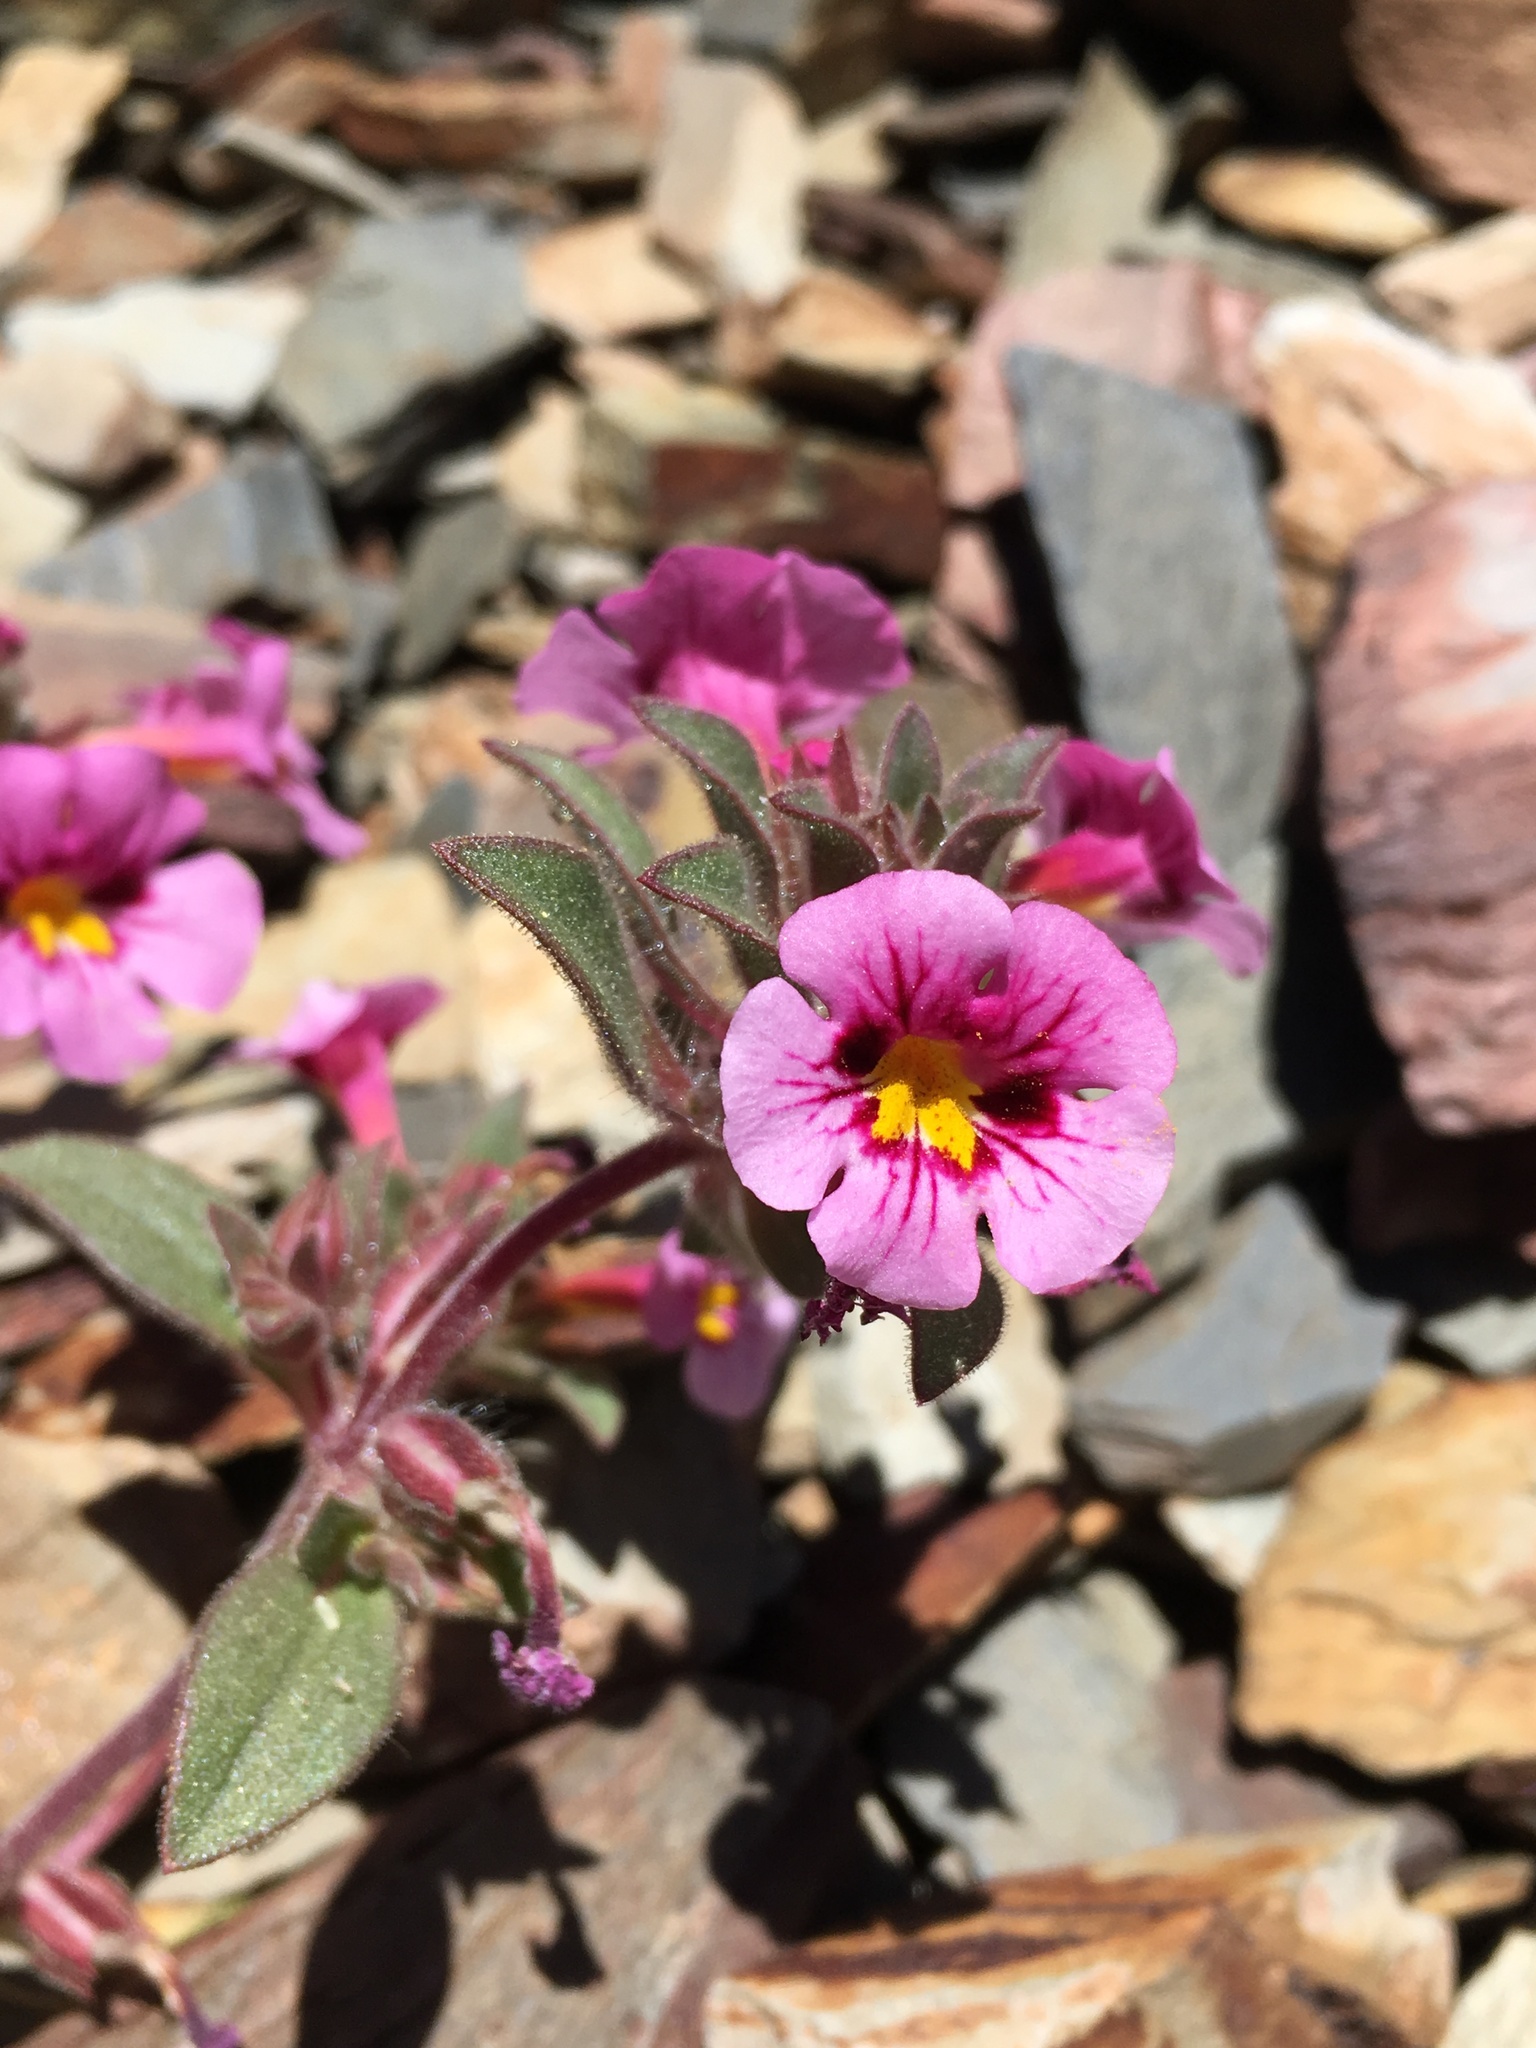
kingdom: Plantae
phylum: Tracheophyta
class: Magnoliopsida
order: Lamiales
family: Phrymaceae
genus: Diplacus
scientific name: Diplacus bigelovii
